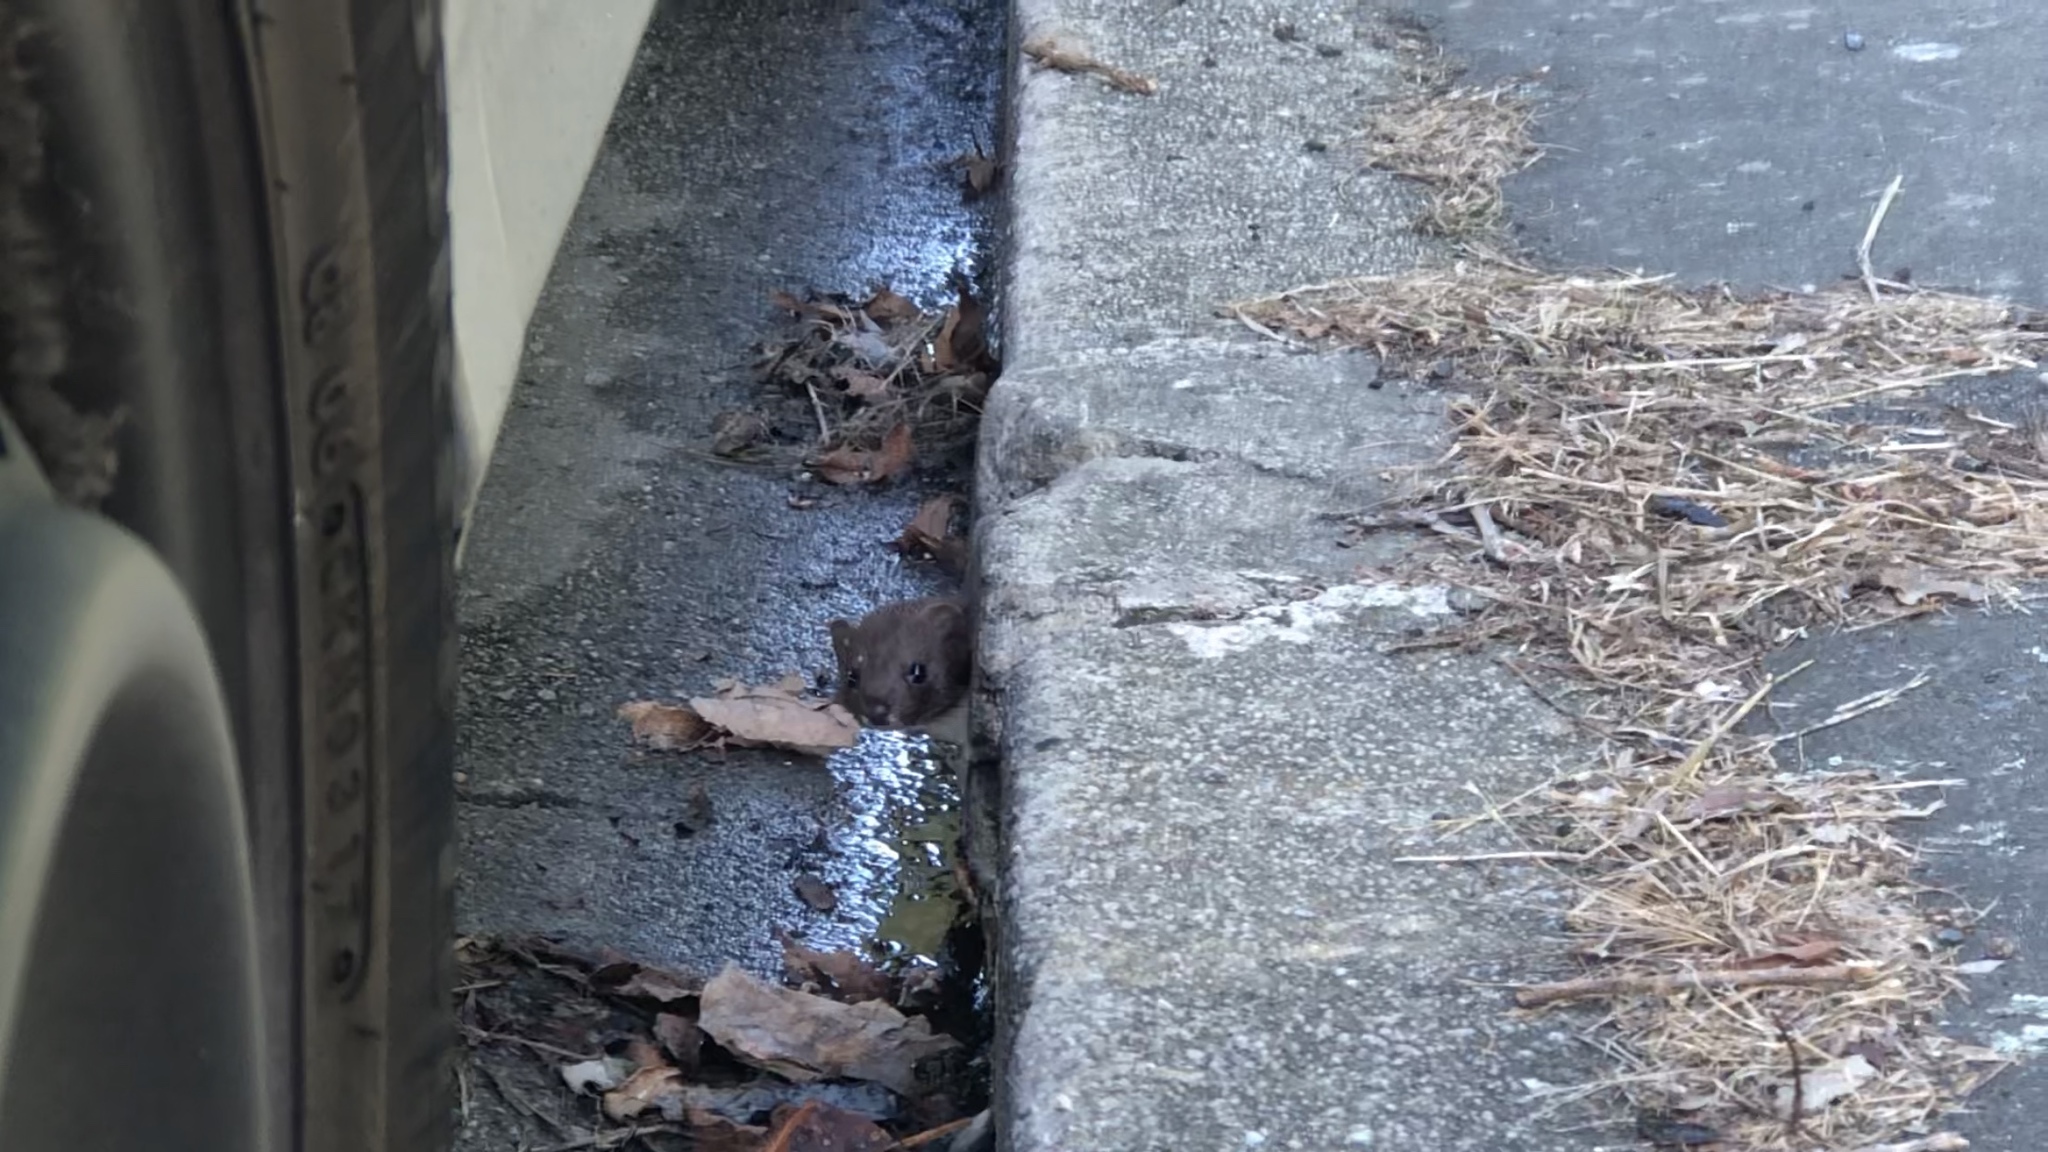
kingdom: Animalia
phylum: Chordata
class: Mammalia
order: Carnivora
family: Mustelidae
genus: Mustela
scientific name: Mustela erminea
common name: Stoat
